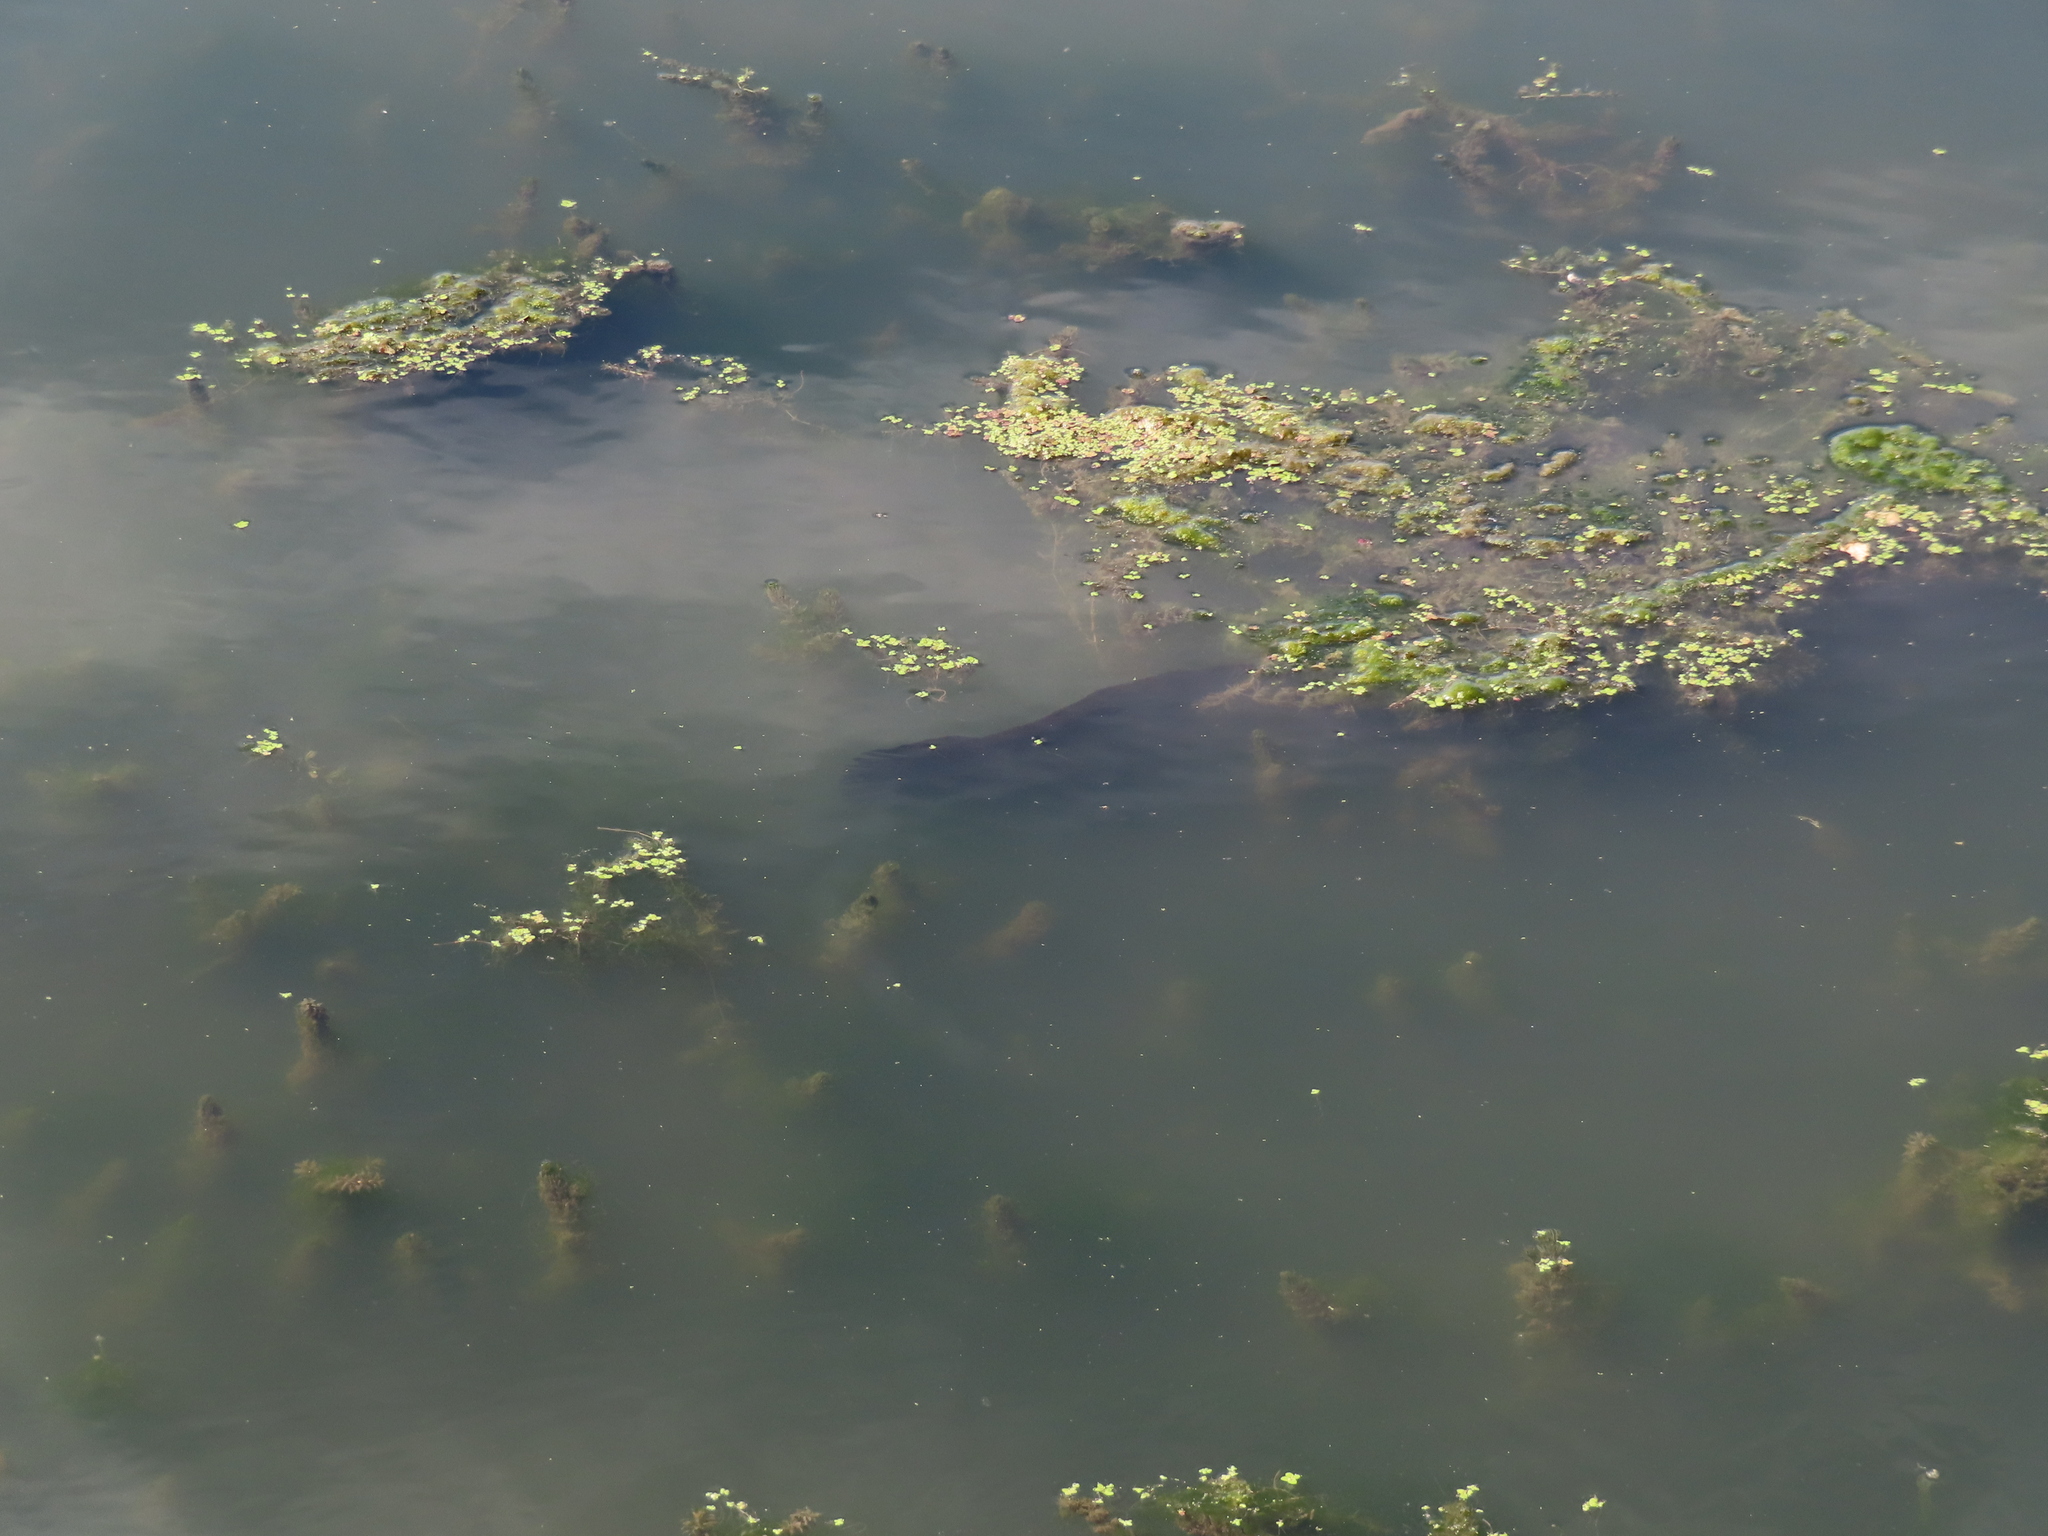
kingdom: Animalia
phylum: Chordata
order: Perciformes
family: Channidae
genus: Channa
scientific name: Channa argus
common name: Northern snakehead
